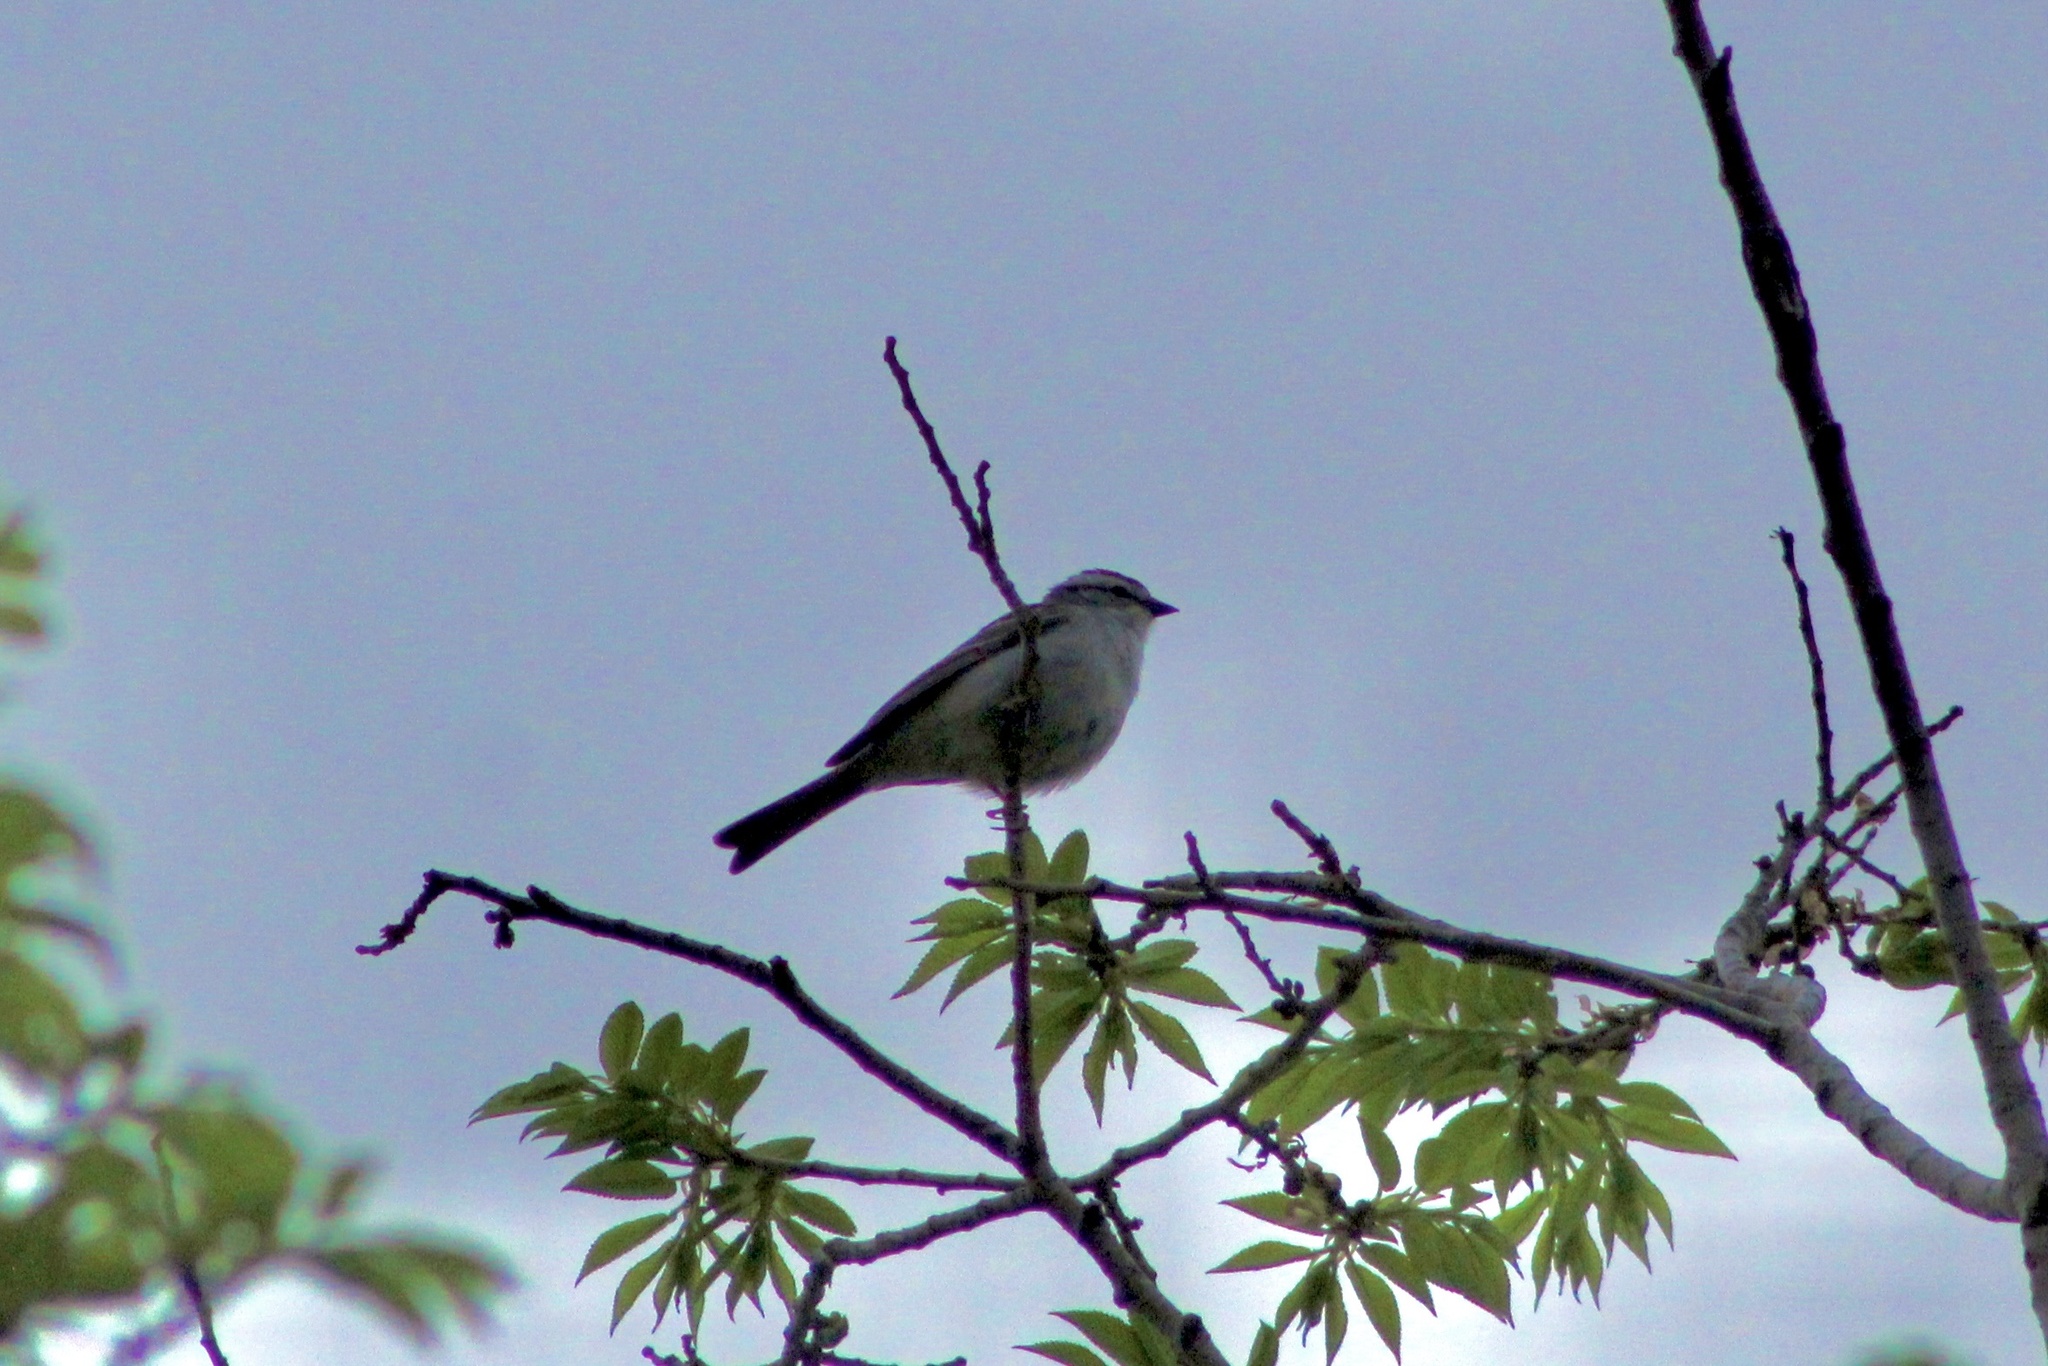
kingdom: Animalia
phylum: Chordata
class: Aves
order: Passeriformes
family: Passerellidae
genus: Spizella
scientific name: Spizella passerina
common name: Chipping sparrow
